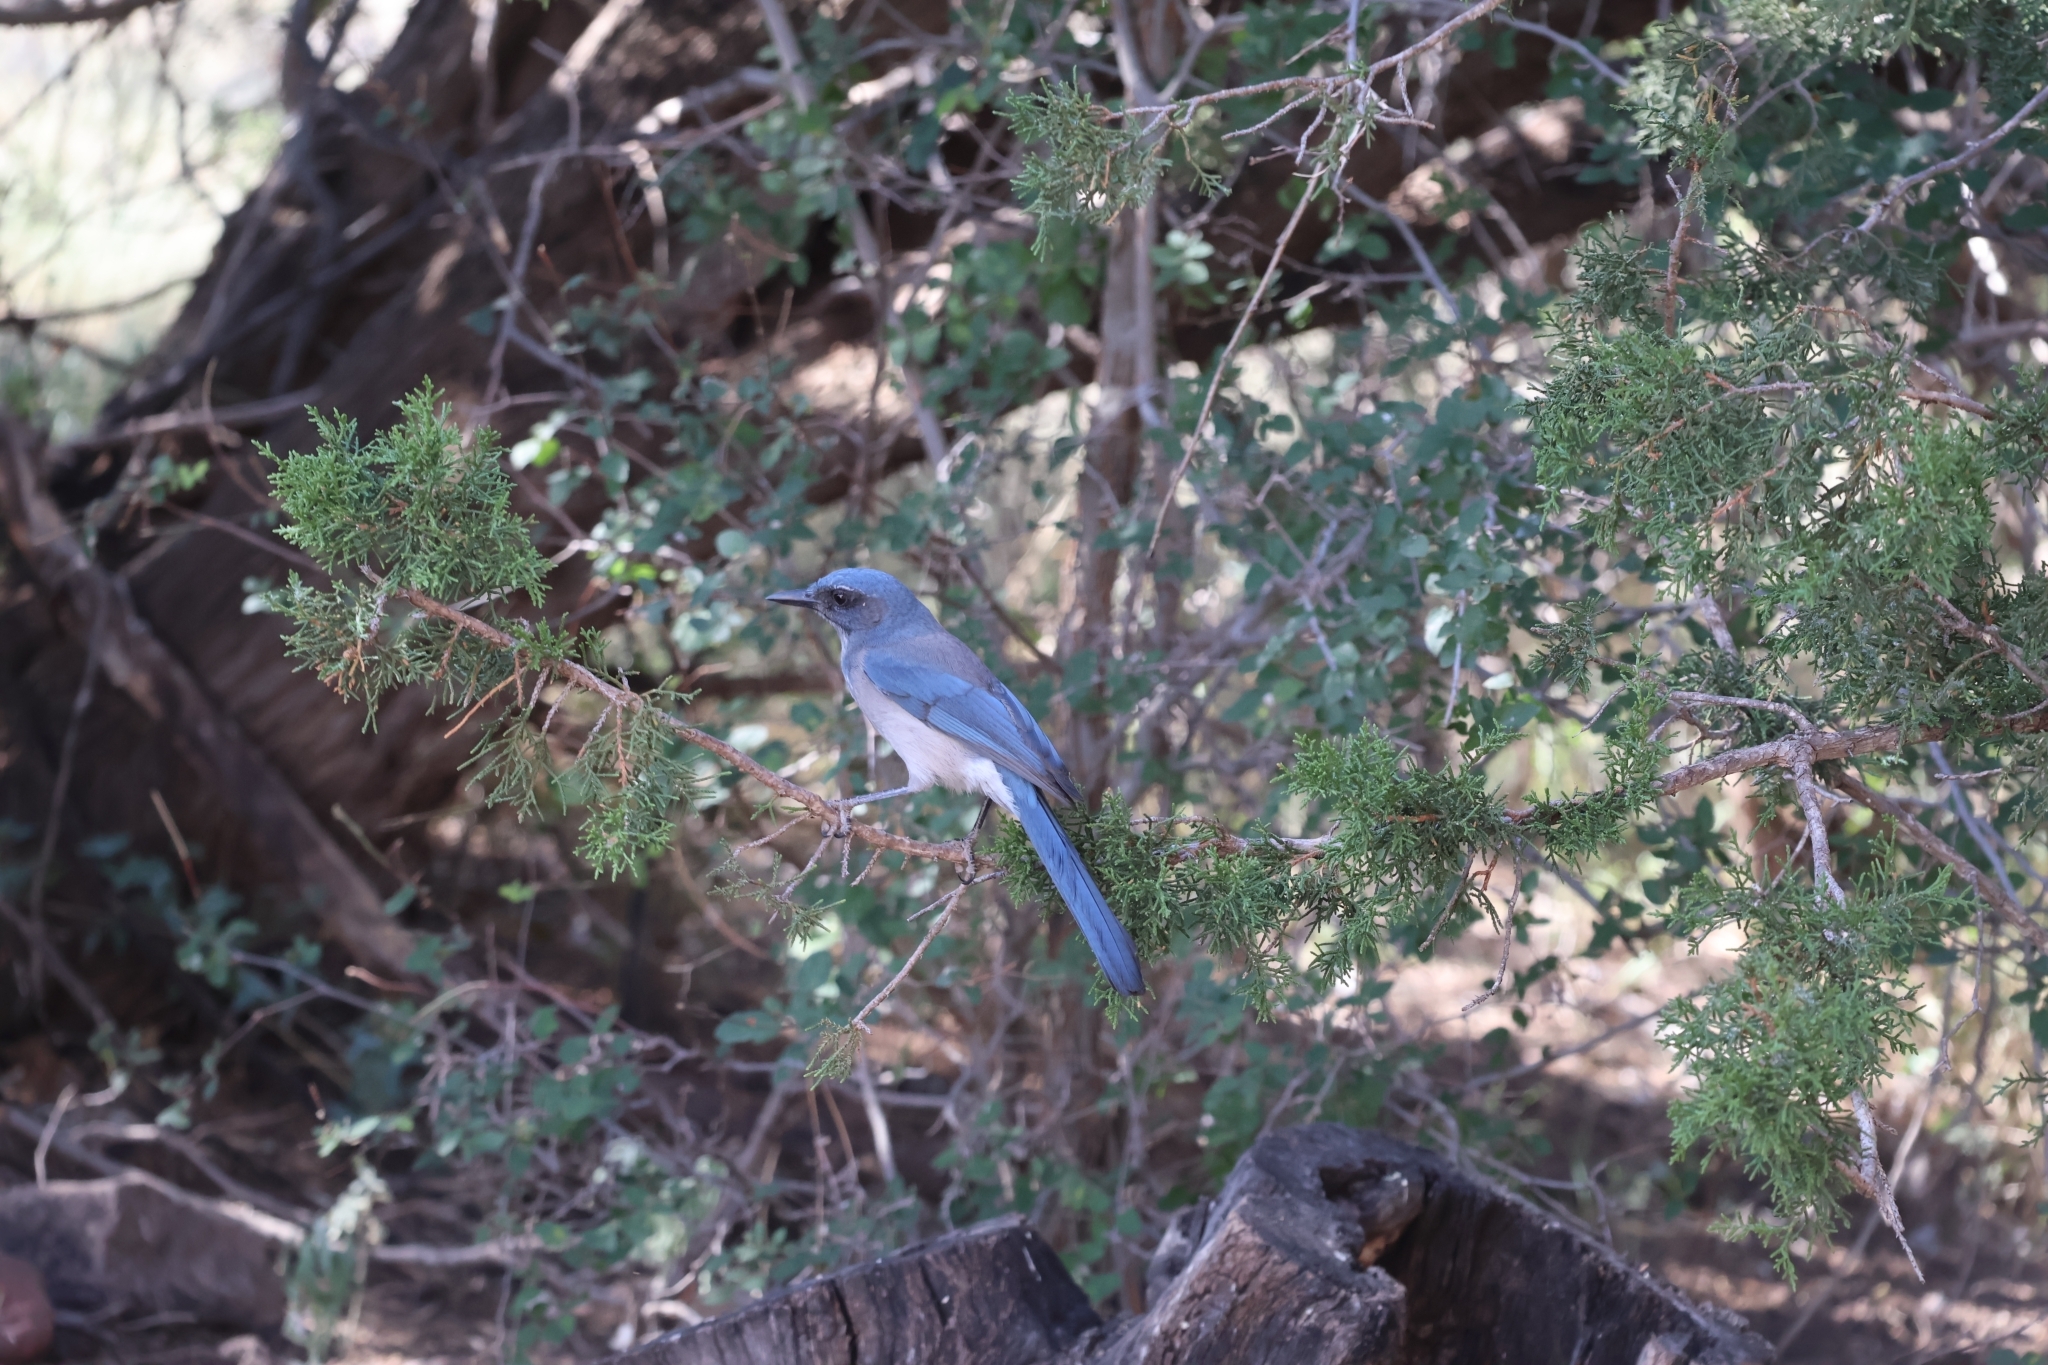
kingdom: Animalia
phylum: Chordata
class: Aves
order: Passeriformes
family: Corvidae
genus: Aphelocoma
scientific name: Aphelocoma woodhouseii
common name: Woodhouse's scrub-jay
